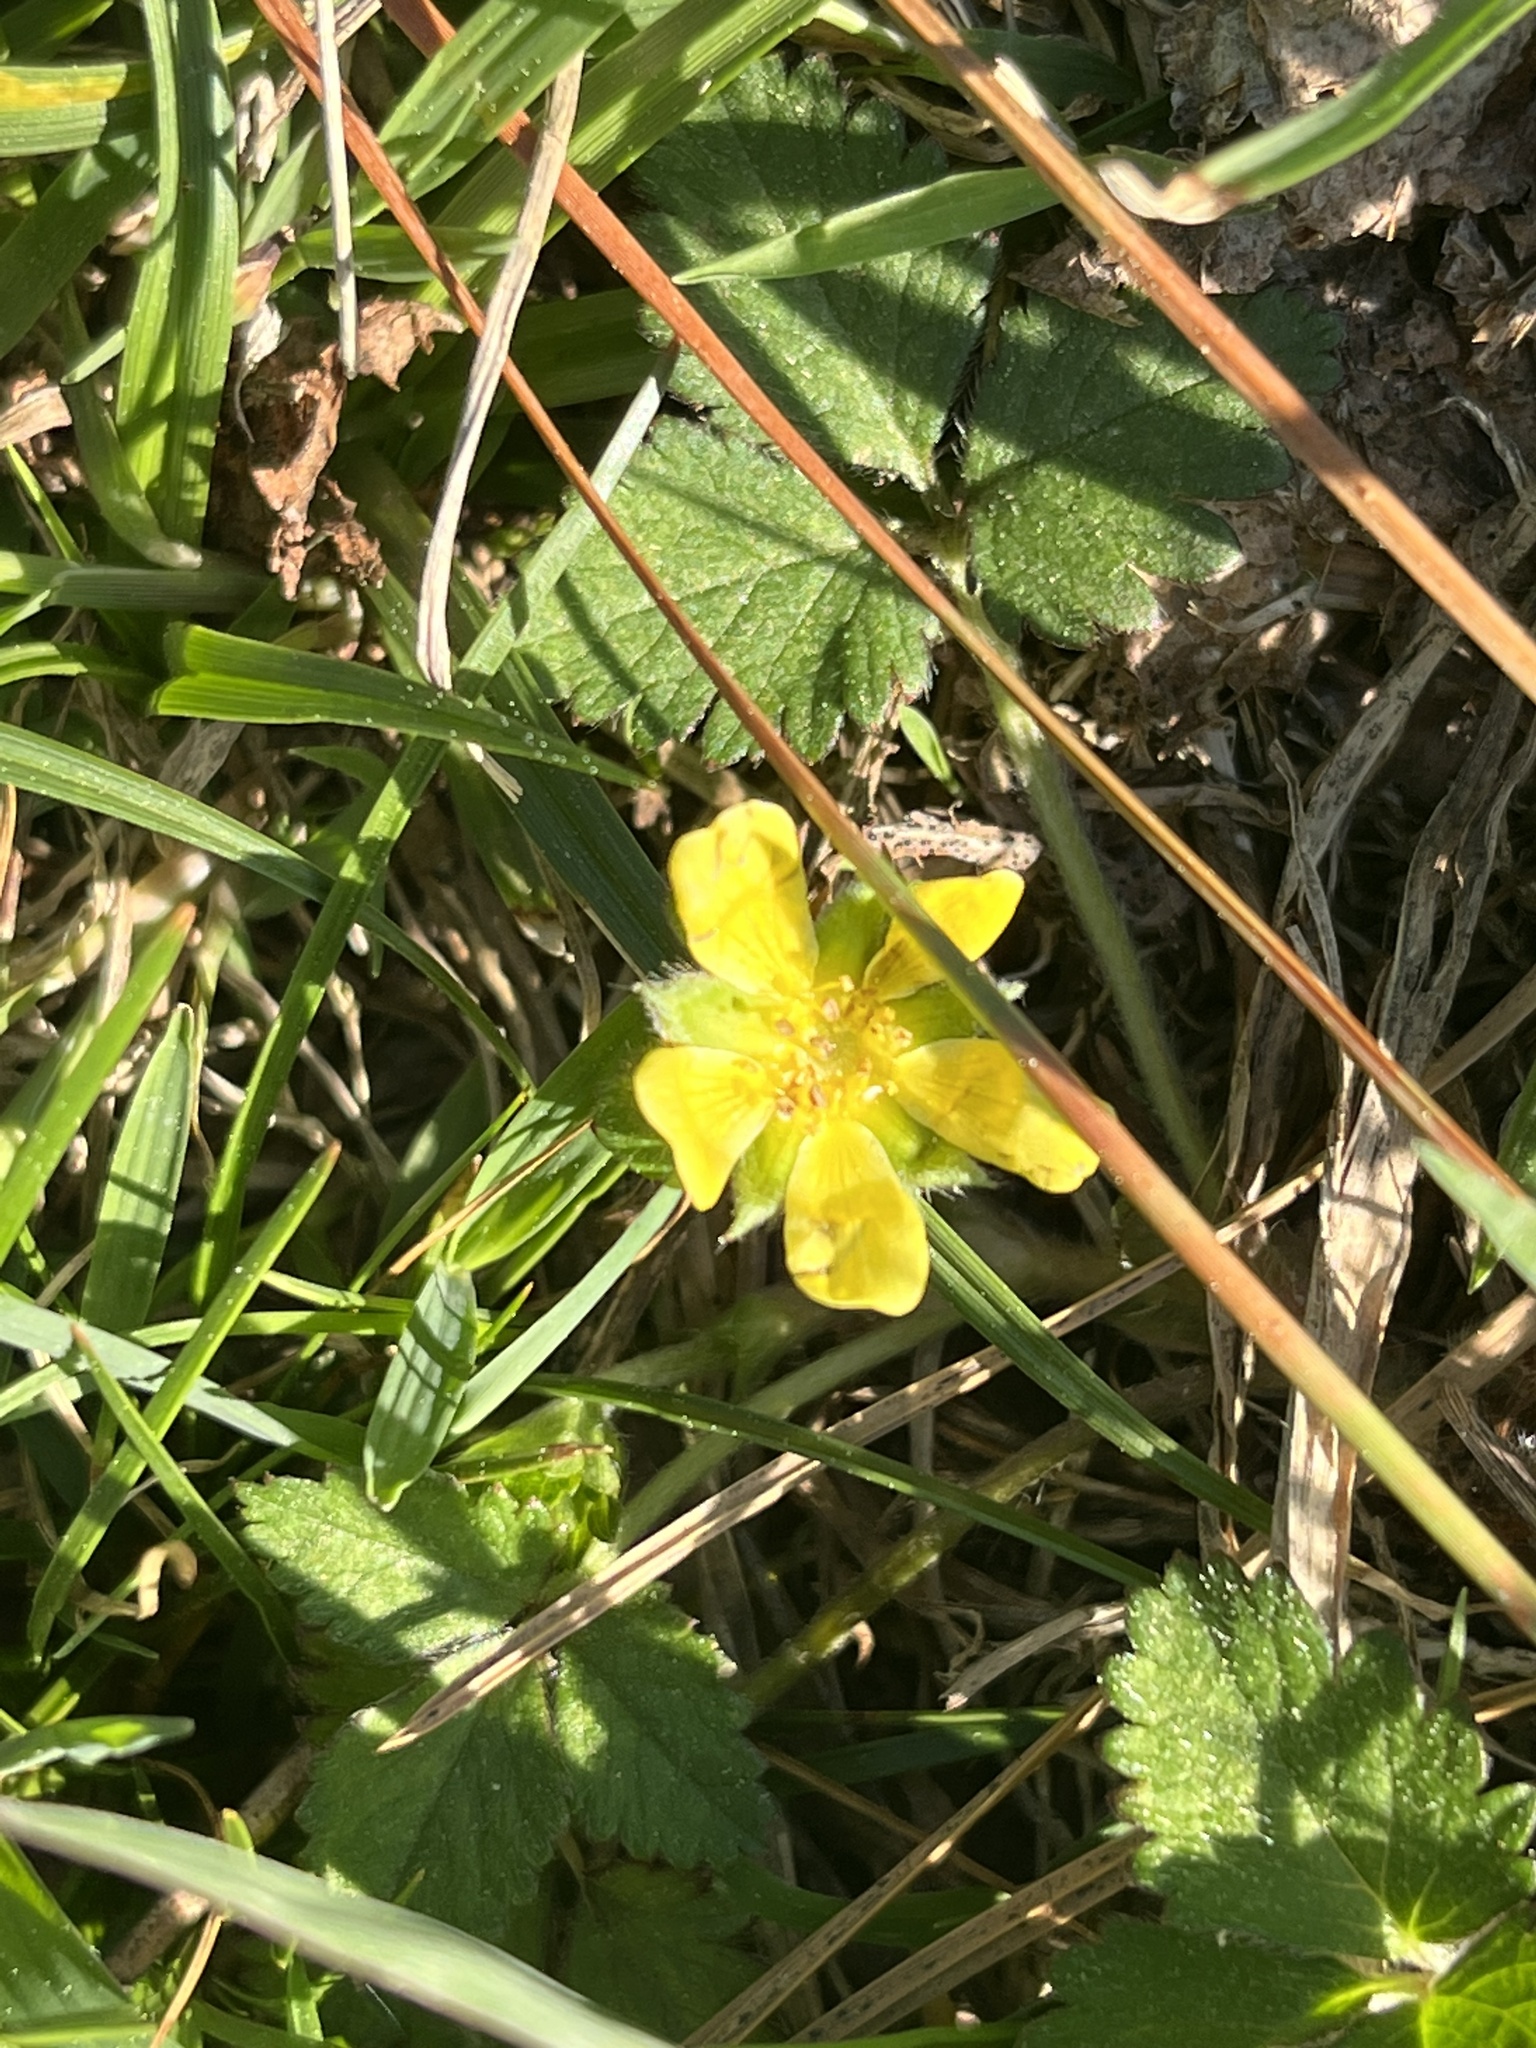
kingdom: Plantae
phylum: Tracheophyta
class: Magnoliopsida
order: Rosales
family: Rosaceae
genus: Potentilla
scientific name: Potentilla indica
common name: Yellow-flowered strawberry
